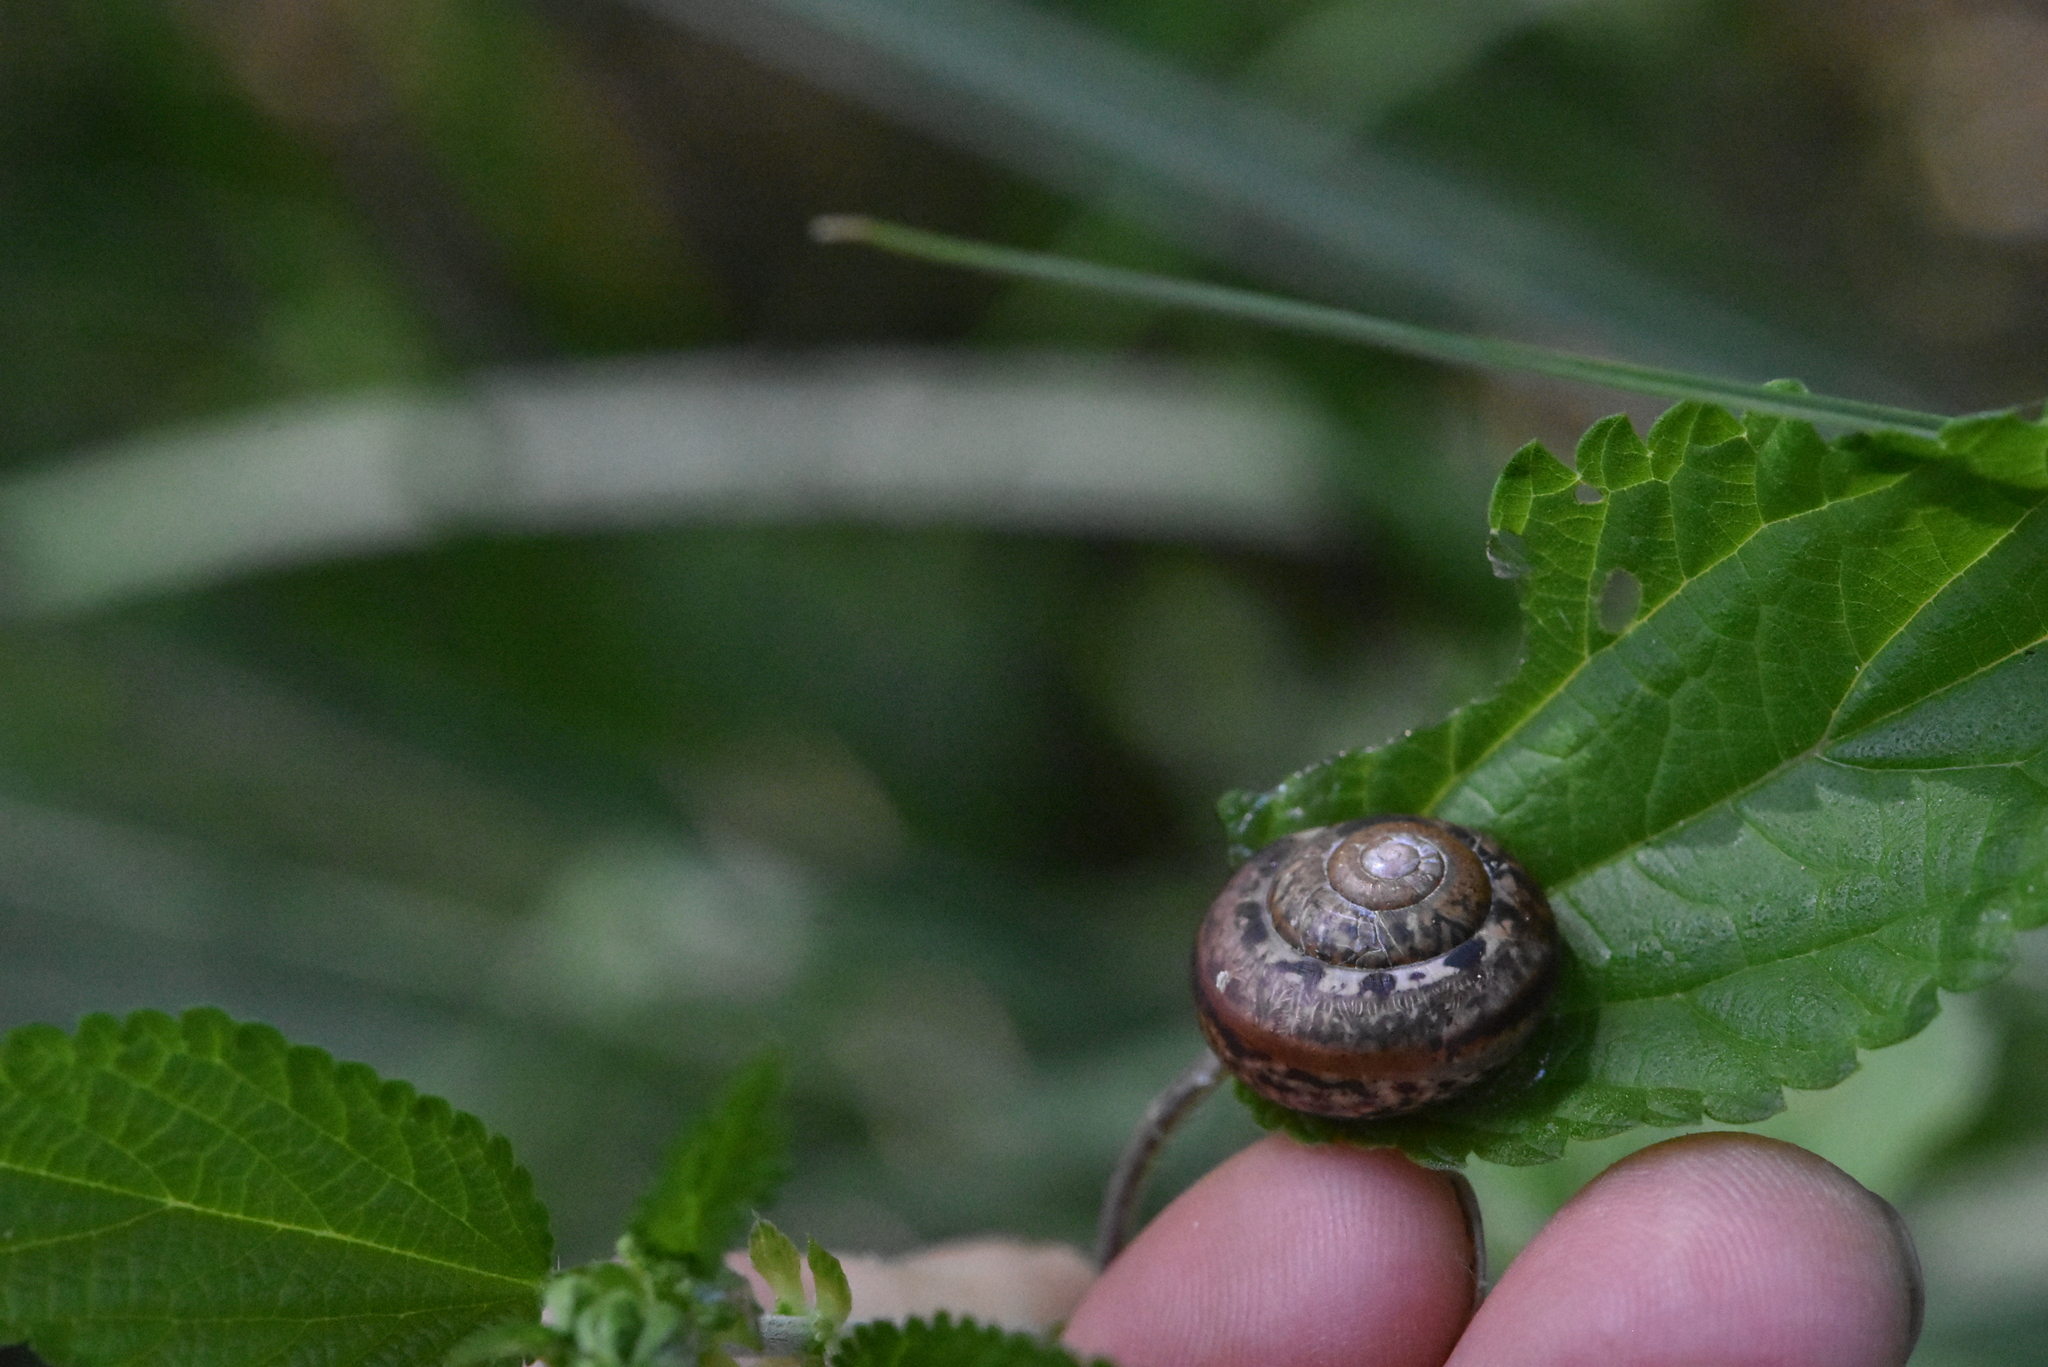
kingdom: Animalia
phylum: Mollusca
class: Gastropoda
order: Stylommatophora
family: Camaenidae
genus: Fruticicola
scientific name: Fruticicola fruticum
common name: Bush snail
